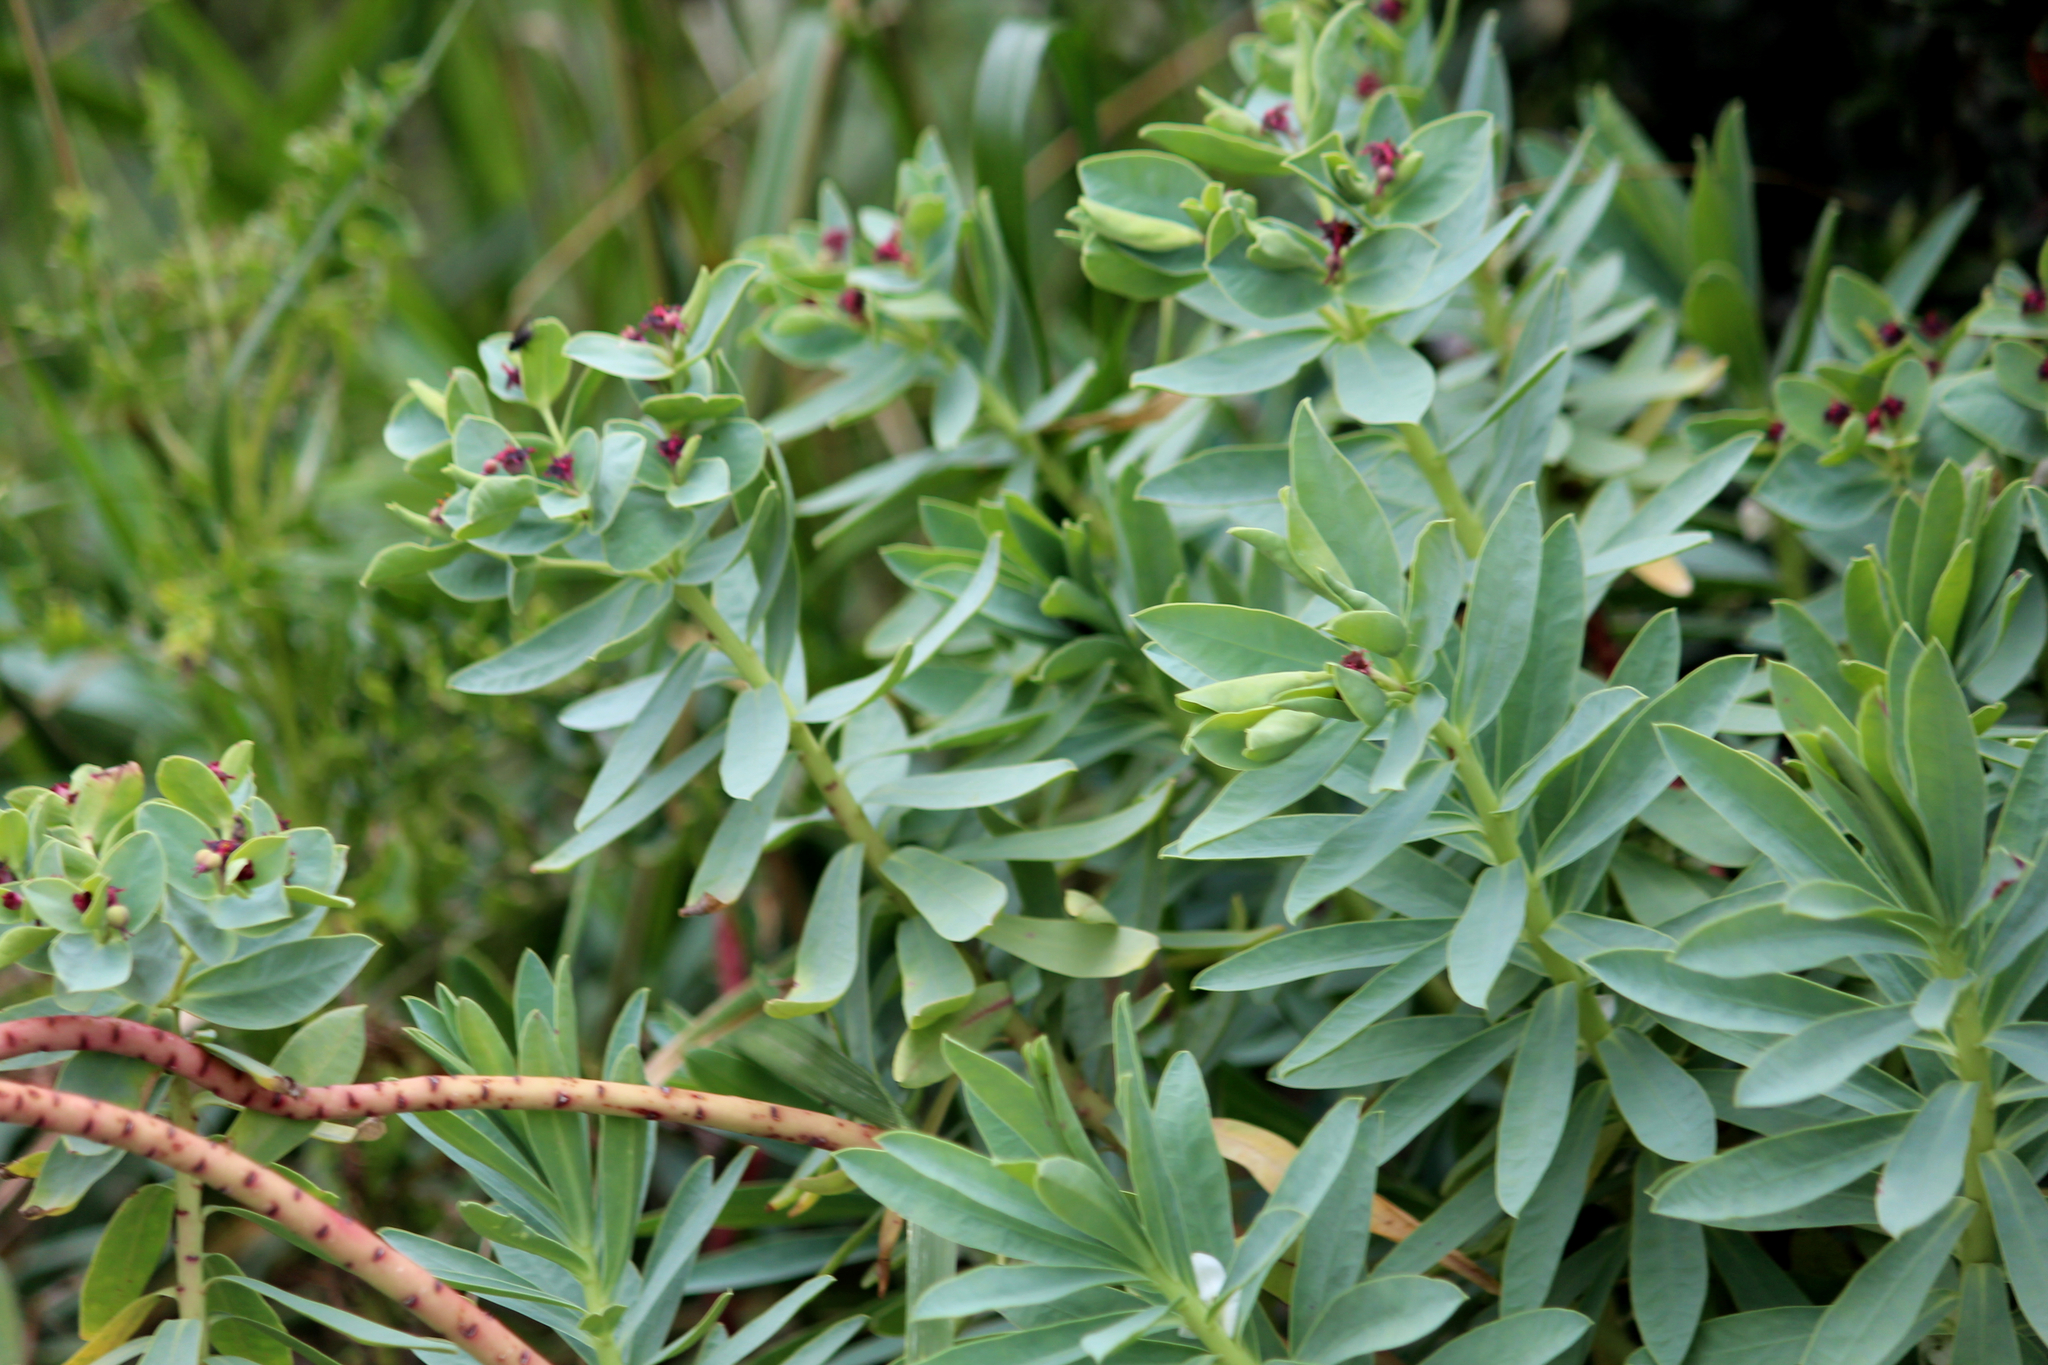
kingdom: Plantae
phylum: Tracheophyta
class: Magnoliopsida
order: Malpighiales
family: Euphorbiaceae
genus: Euphorbia
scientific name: Euphorbia glauca
